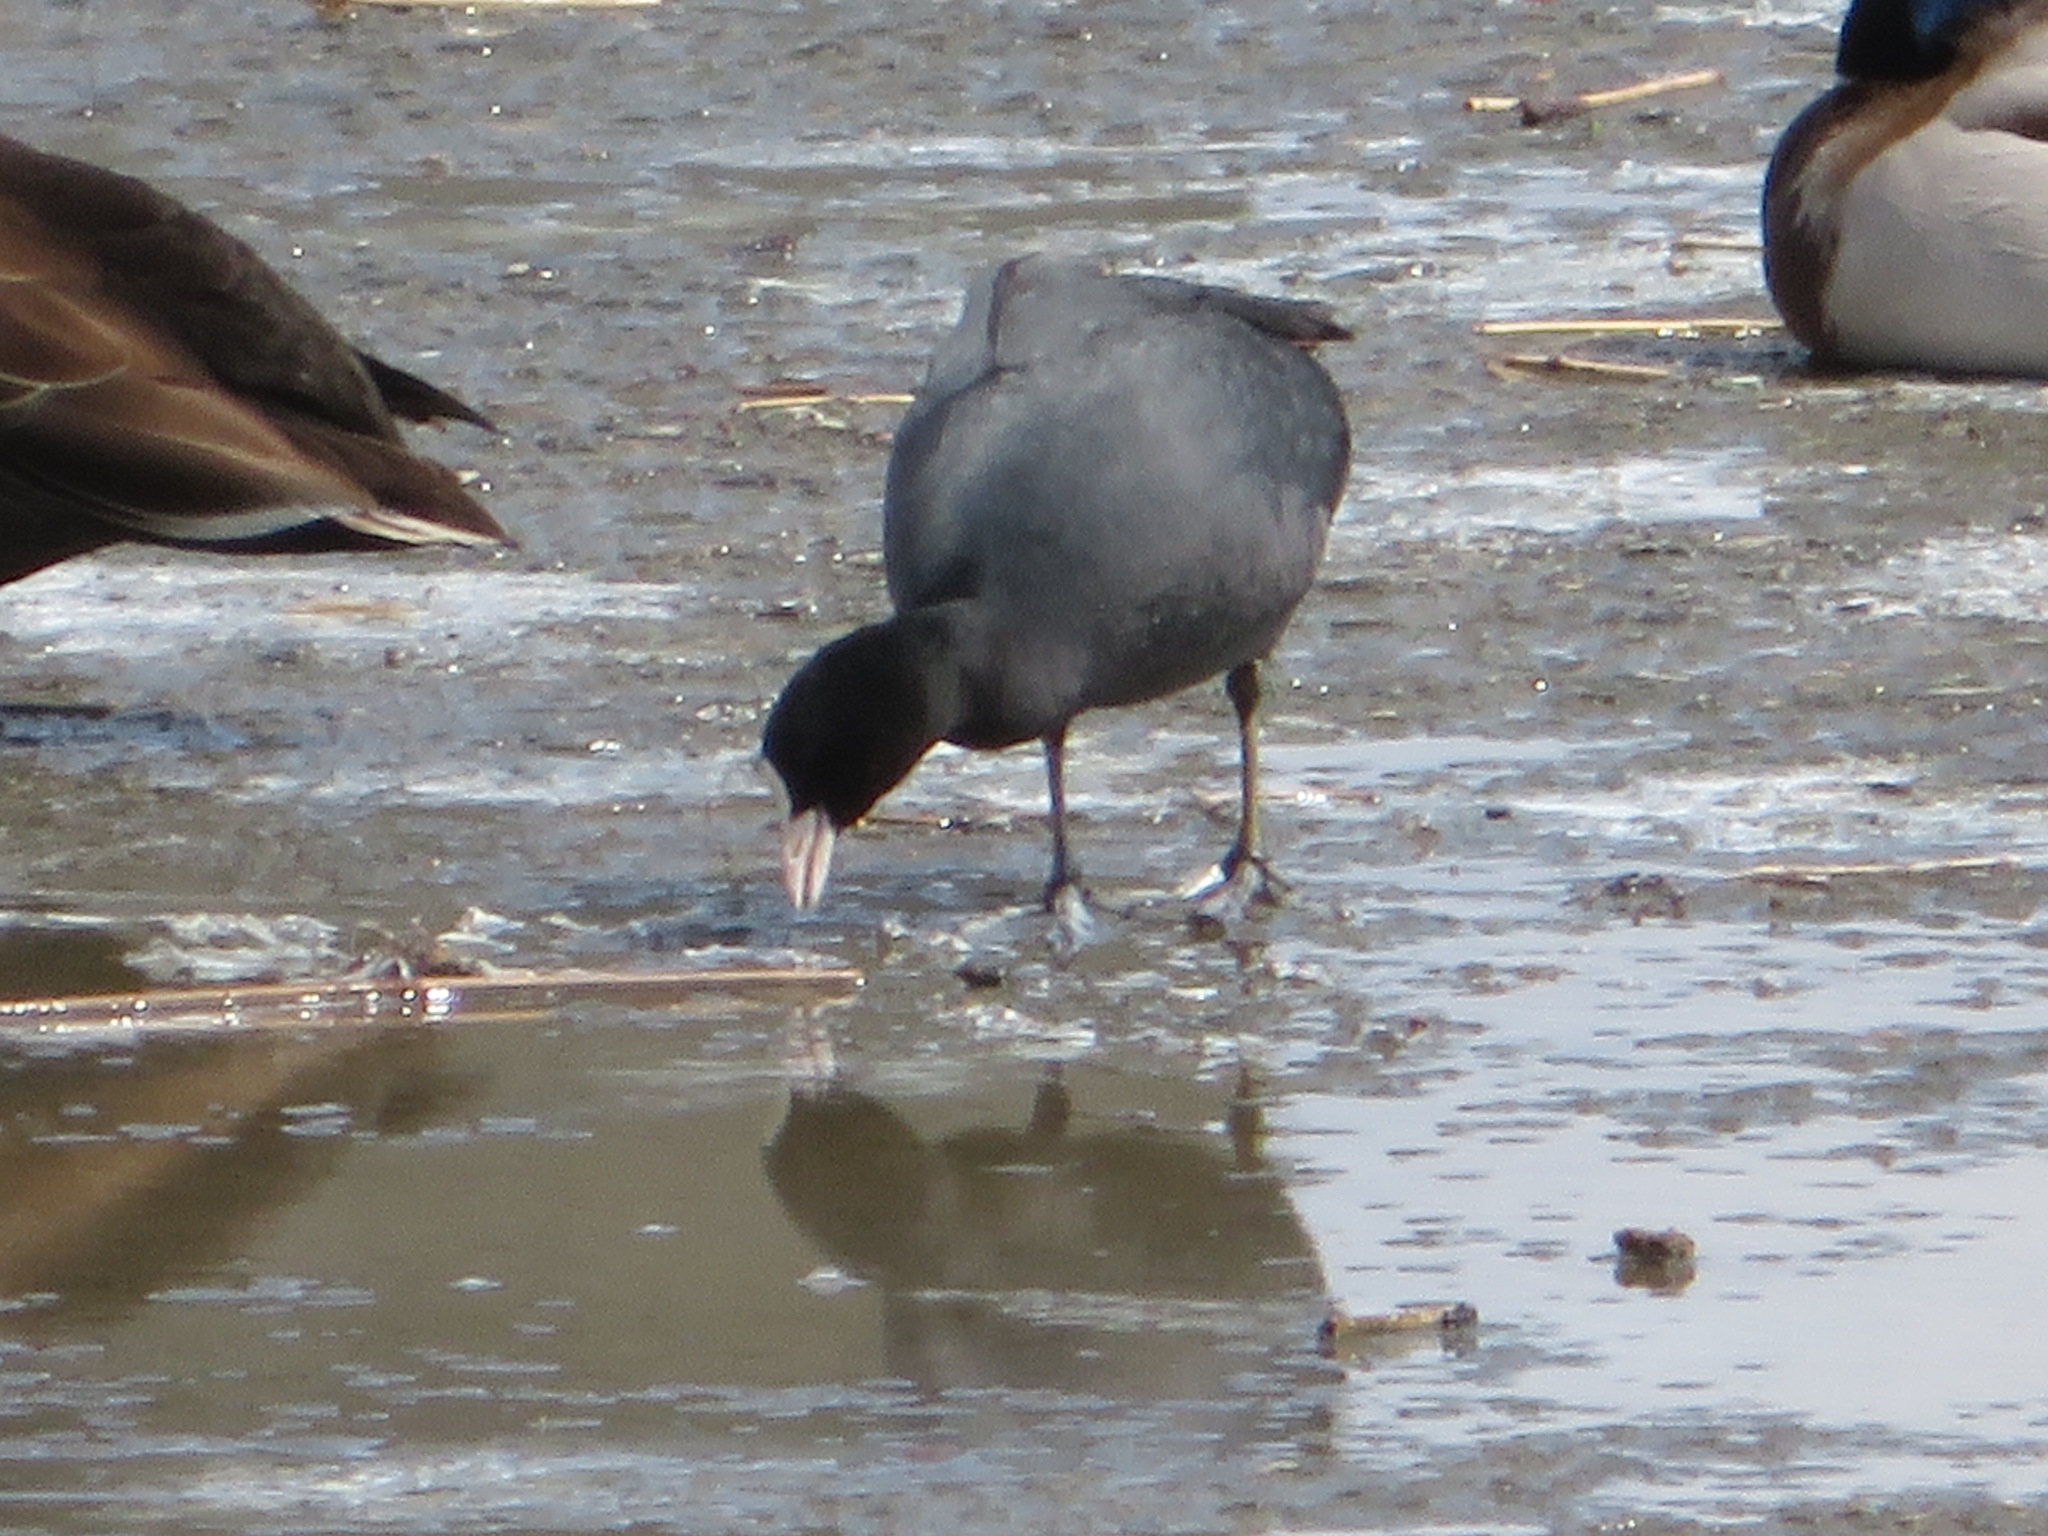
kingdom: Animalia
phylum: Chordata
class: Aves
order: Gruiformes
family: Rallidae
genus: Fulica
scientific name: Fulica atra
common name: Eurasian coot
